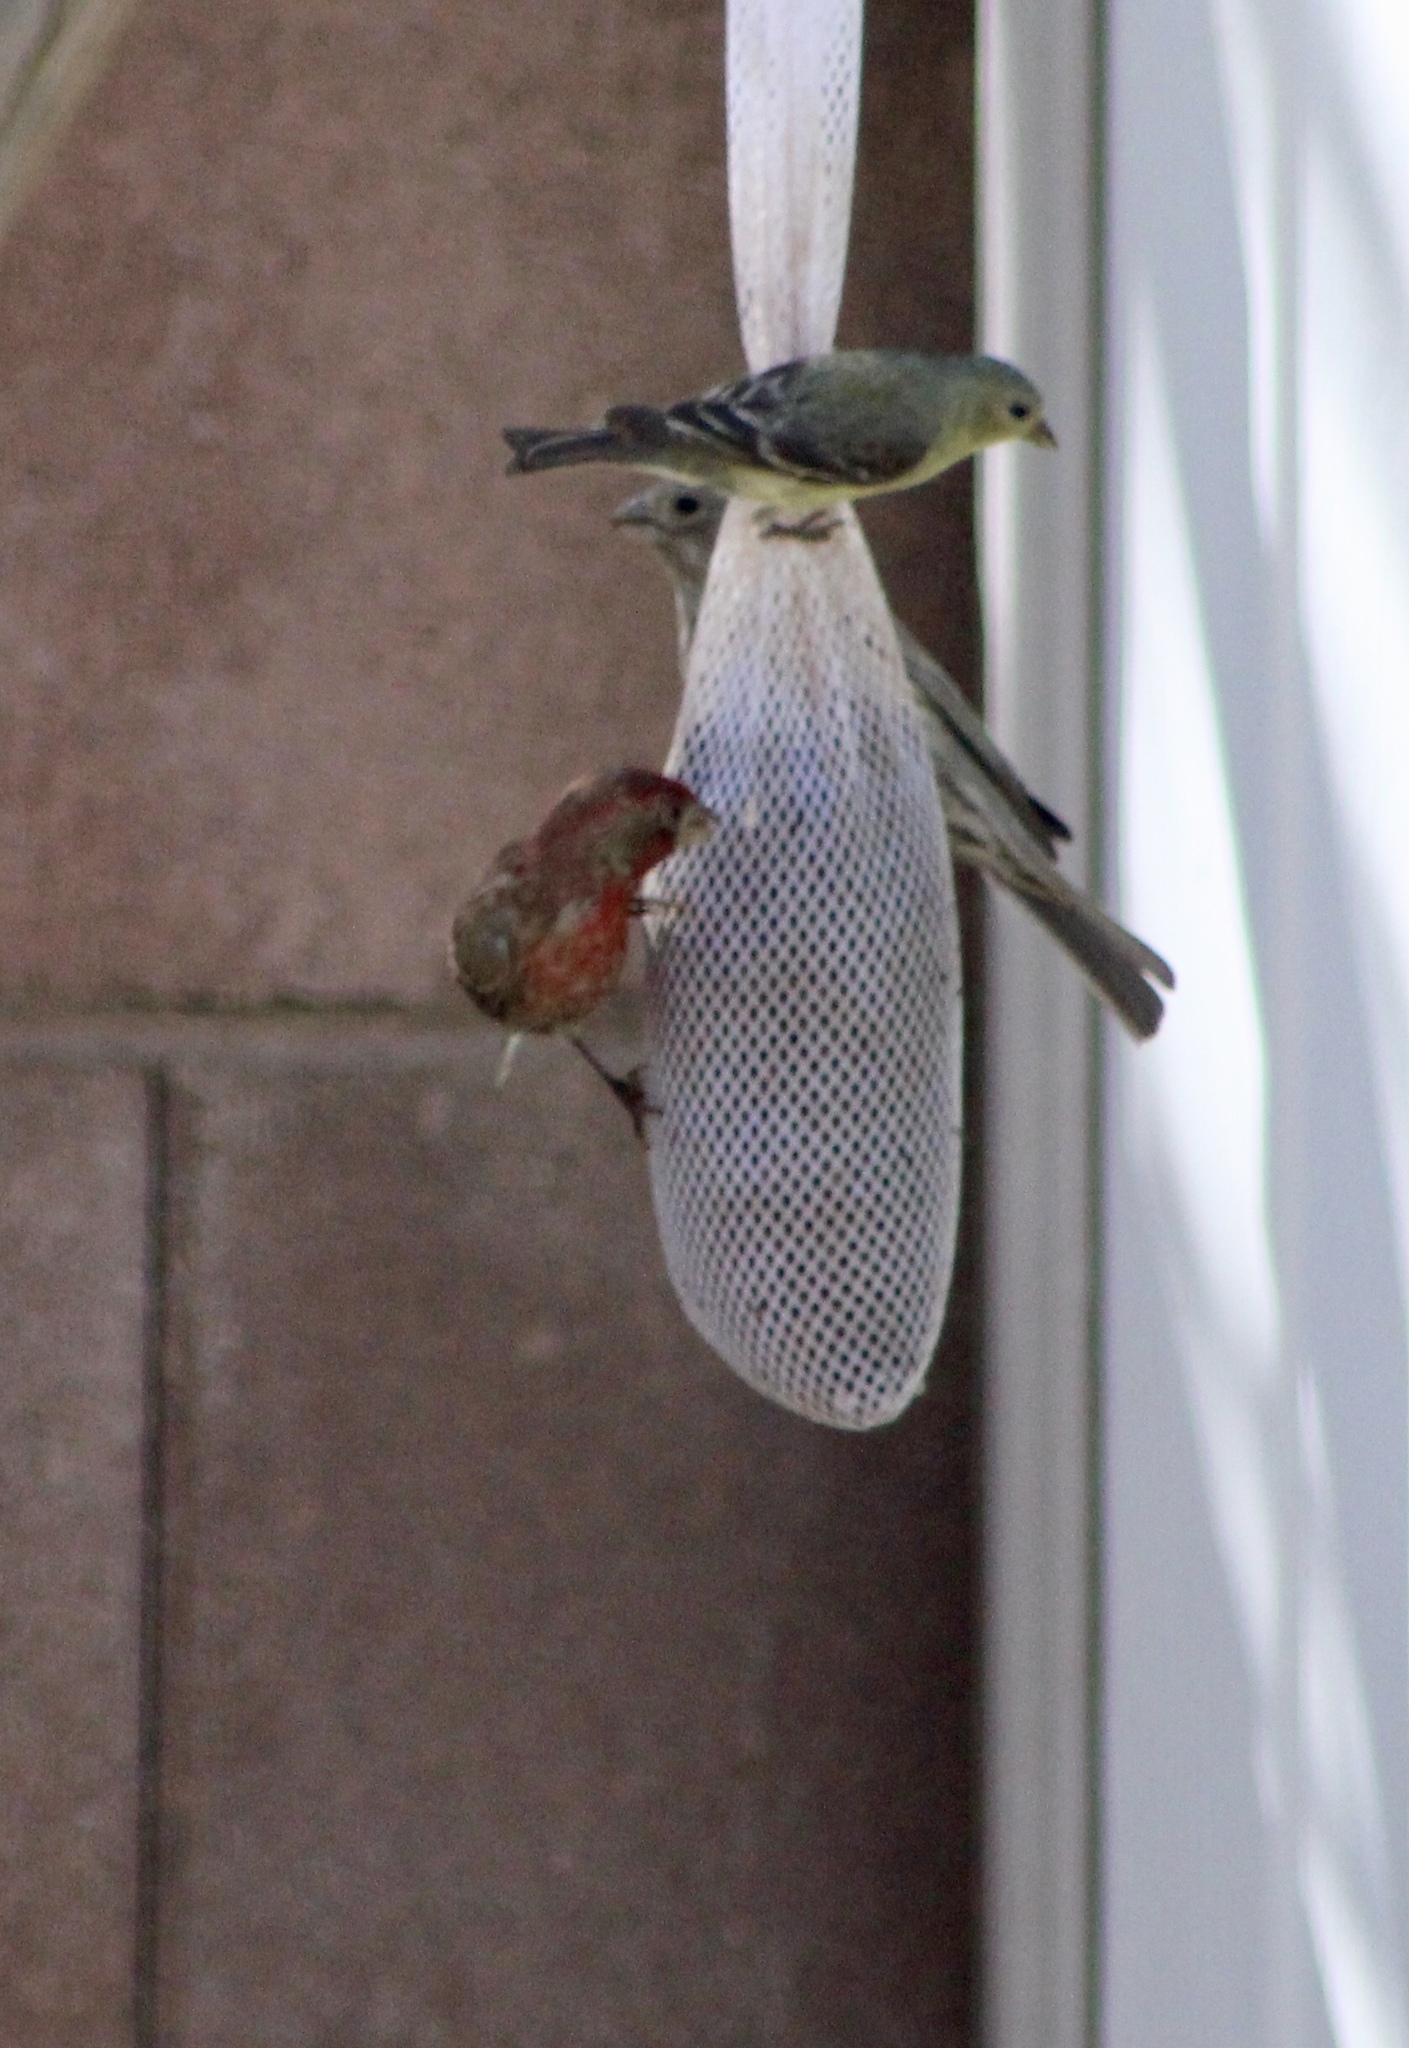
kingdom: Animalia
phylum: Chordata
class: Aves
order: Passeriformes
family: Fringillidae
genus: Haemorhous
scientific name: Haemorhous mexicanus
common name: House finch
